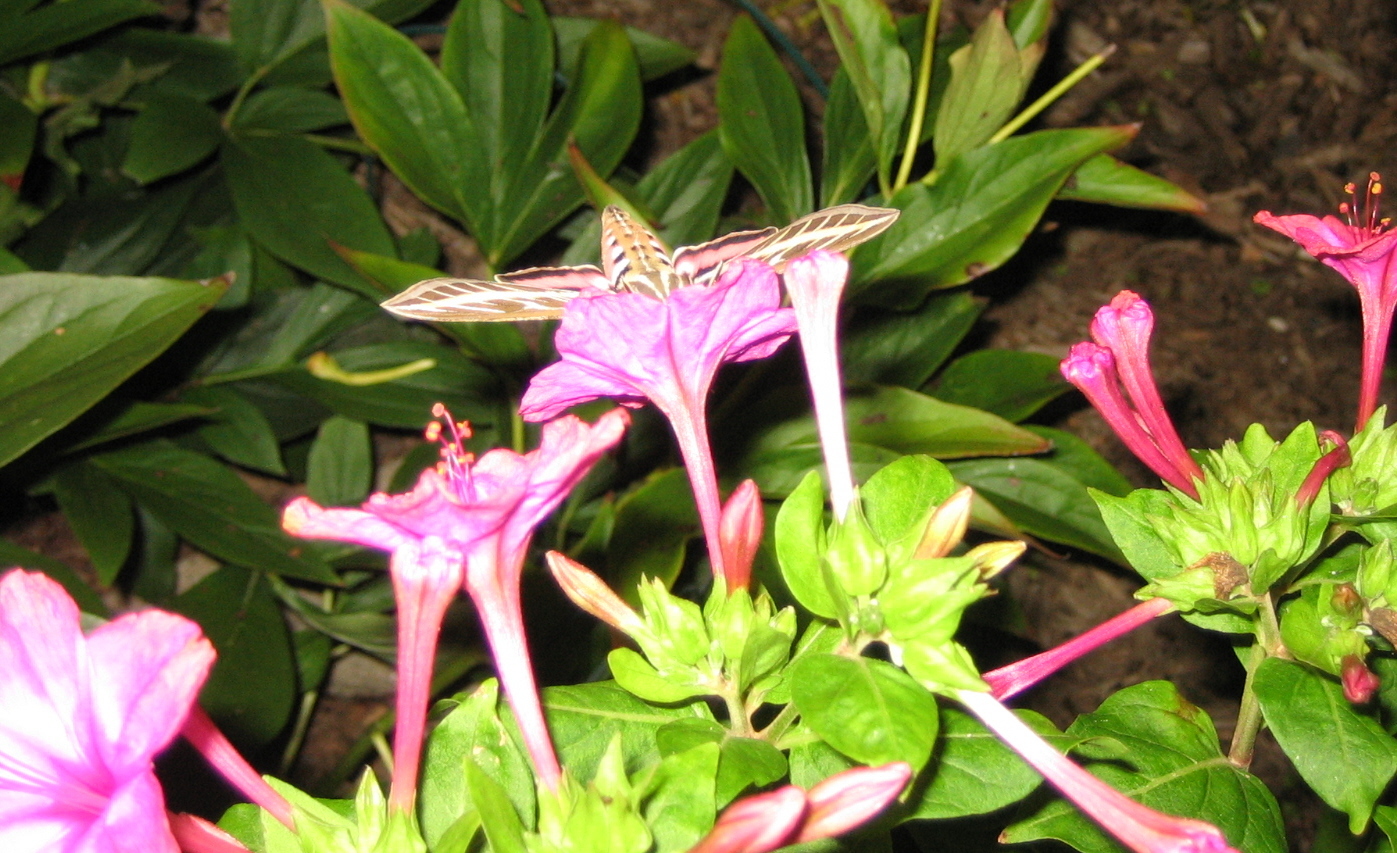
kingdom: Animalia
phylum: Arthropoda
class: Insecta
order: Lepidoptera
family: Sphingidae
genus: Hyles
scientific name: Hyles lineata
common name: White-lined sphinx
